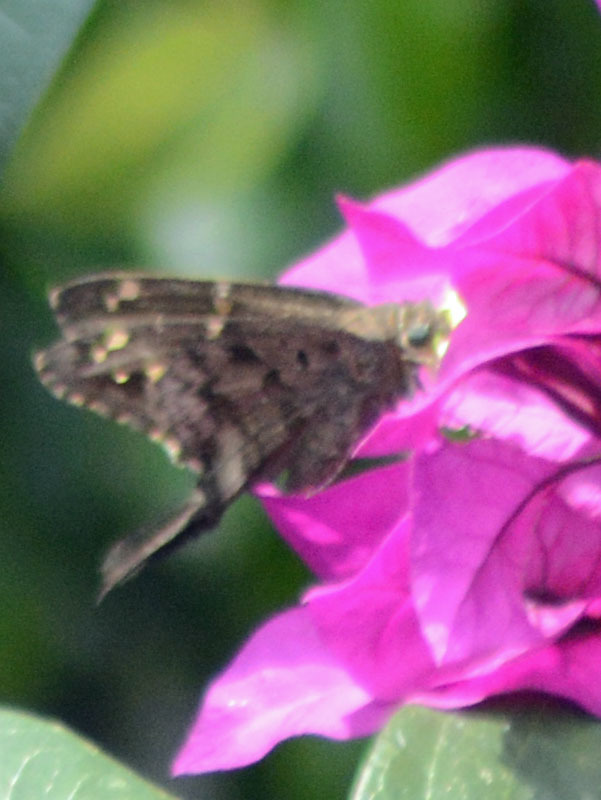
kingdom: Animalia
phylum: Arthropoda
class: Insecta
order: Lepidoptera
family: Hesperiidae
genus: Thorybes
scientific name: Thorybes
